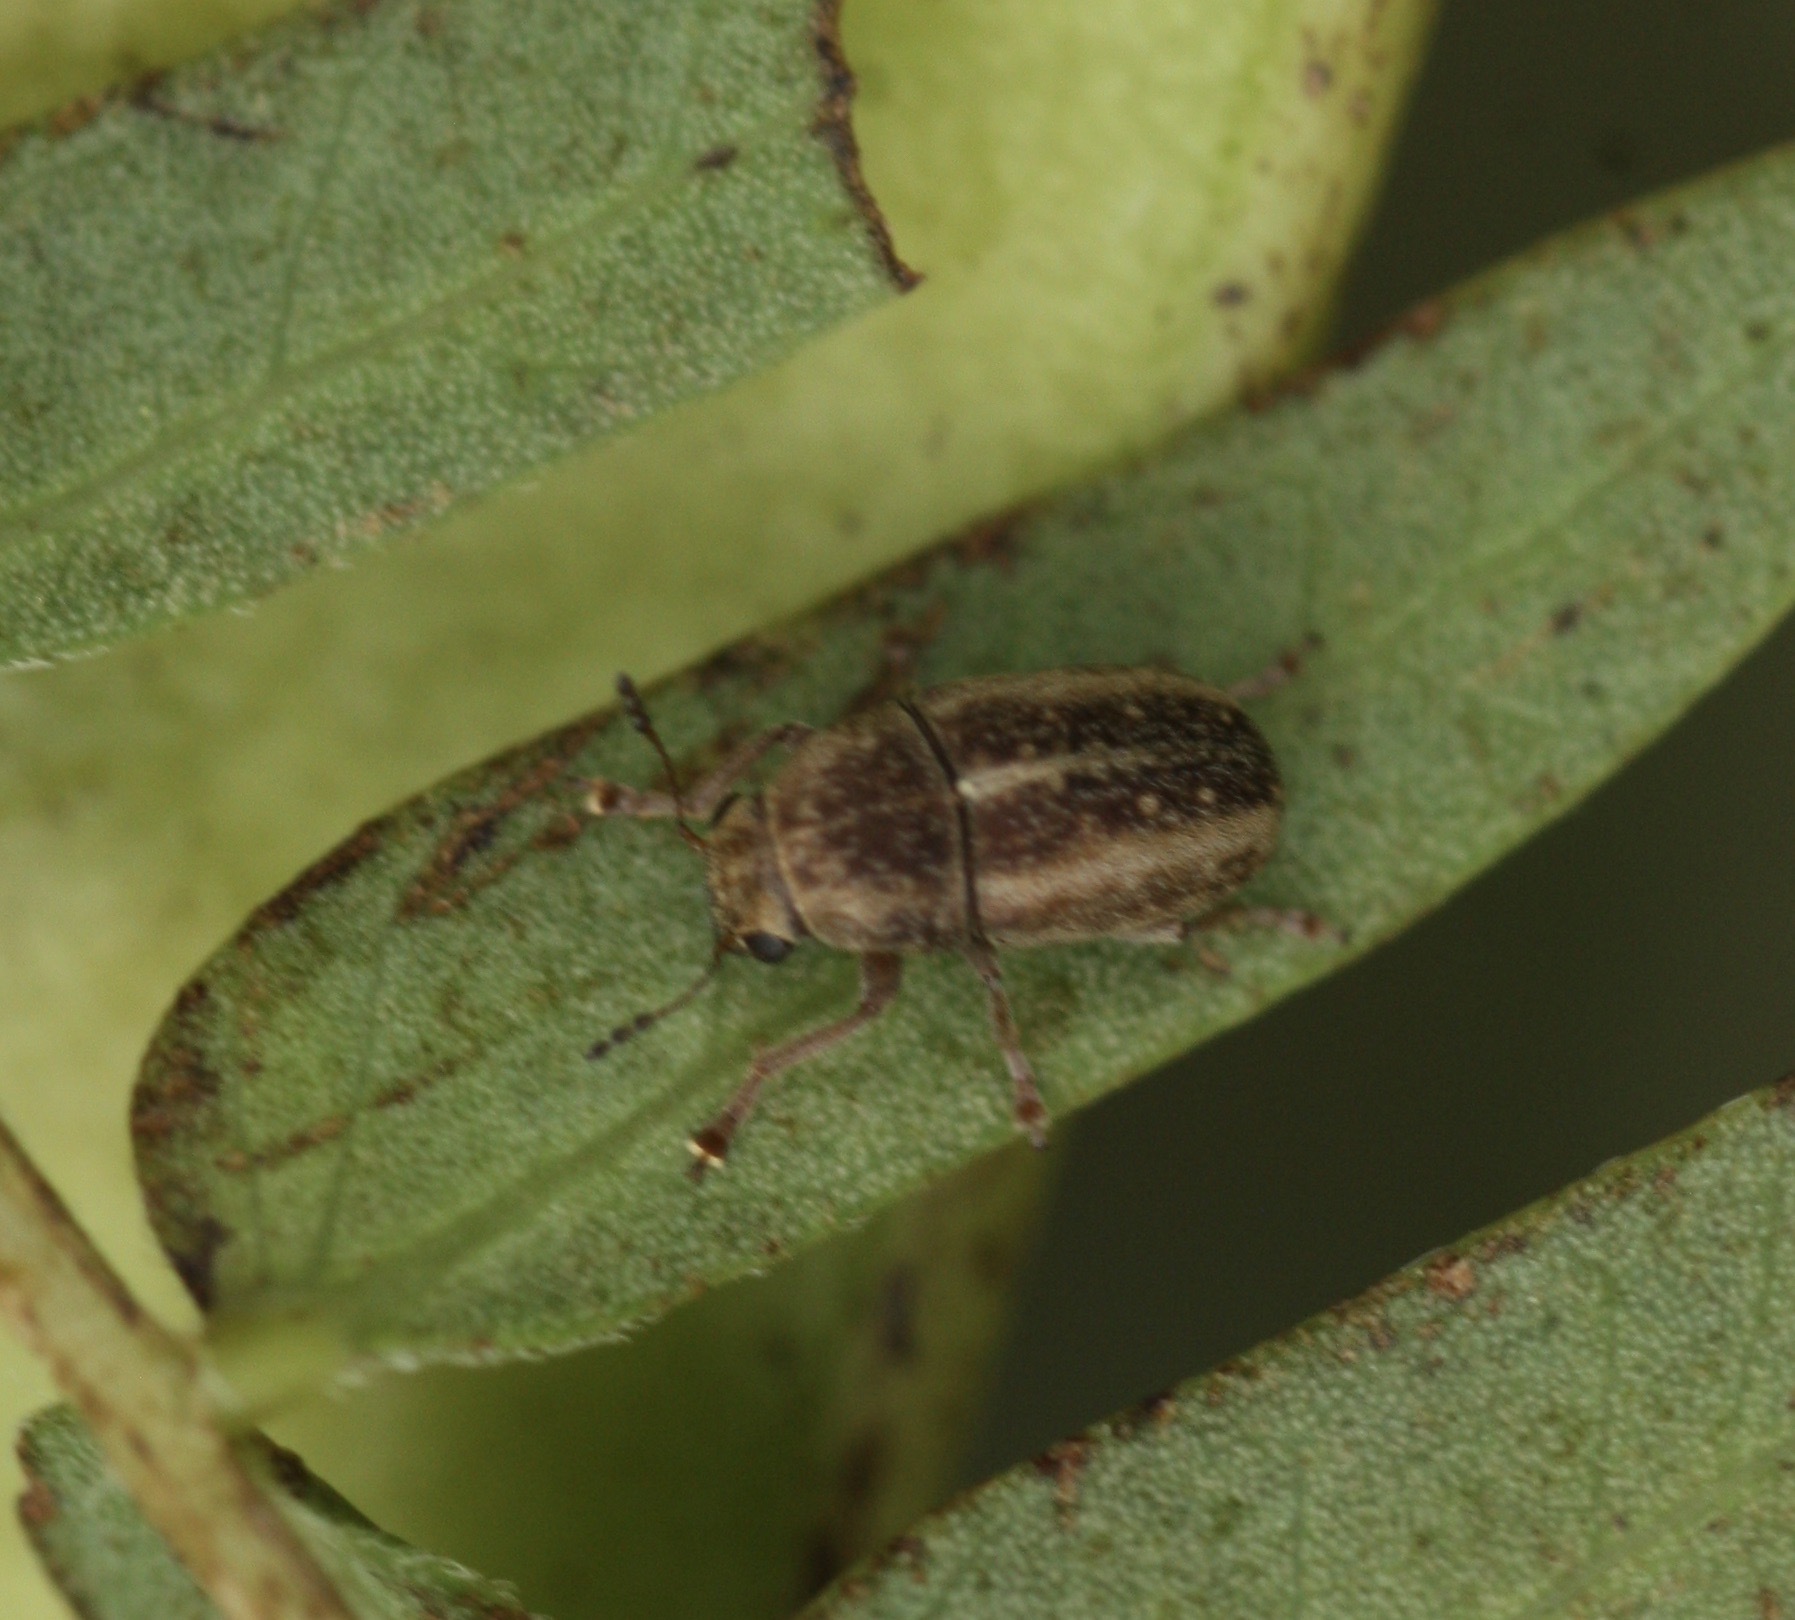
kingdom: Animalia
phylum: Arthropoda
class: Insecta
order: Coleoptera
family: Anthribidae
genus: Araecerus
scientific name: Araecerus levipennis
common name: Koa haole seed weevil
